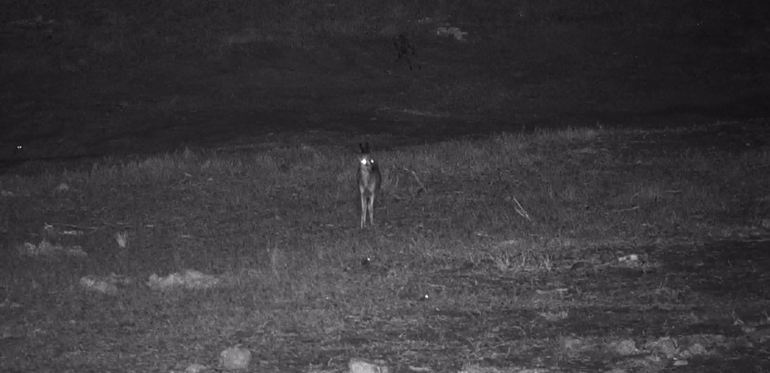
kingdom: Animalia
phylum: Chordata
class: Mammalia
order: Artiodactyla
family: Bovidae
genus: Sylvicapra
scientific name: Sylvicapra grimmia
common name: Bush duiker
